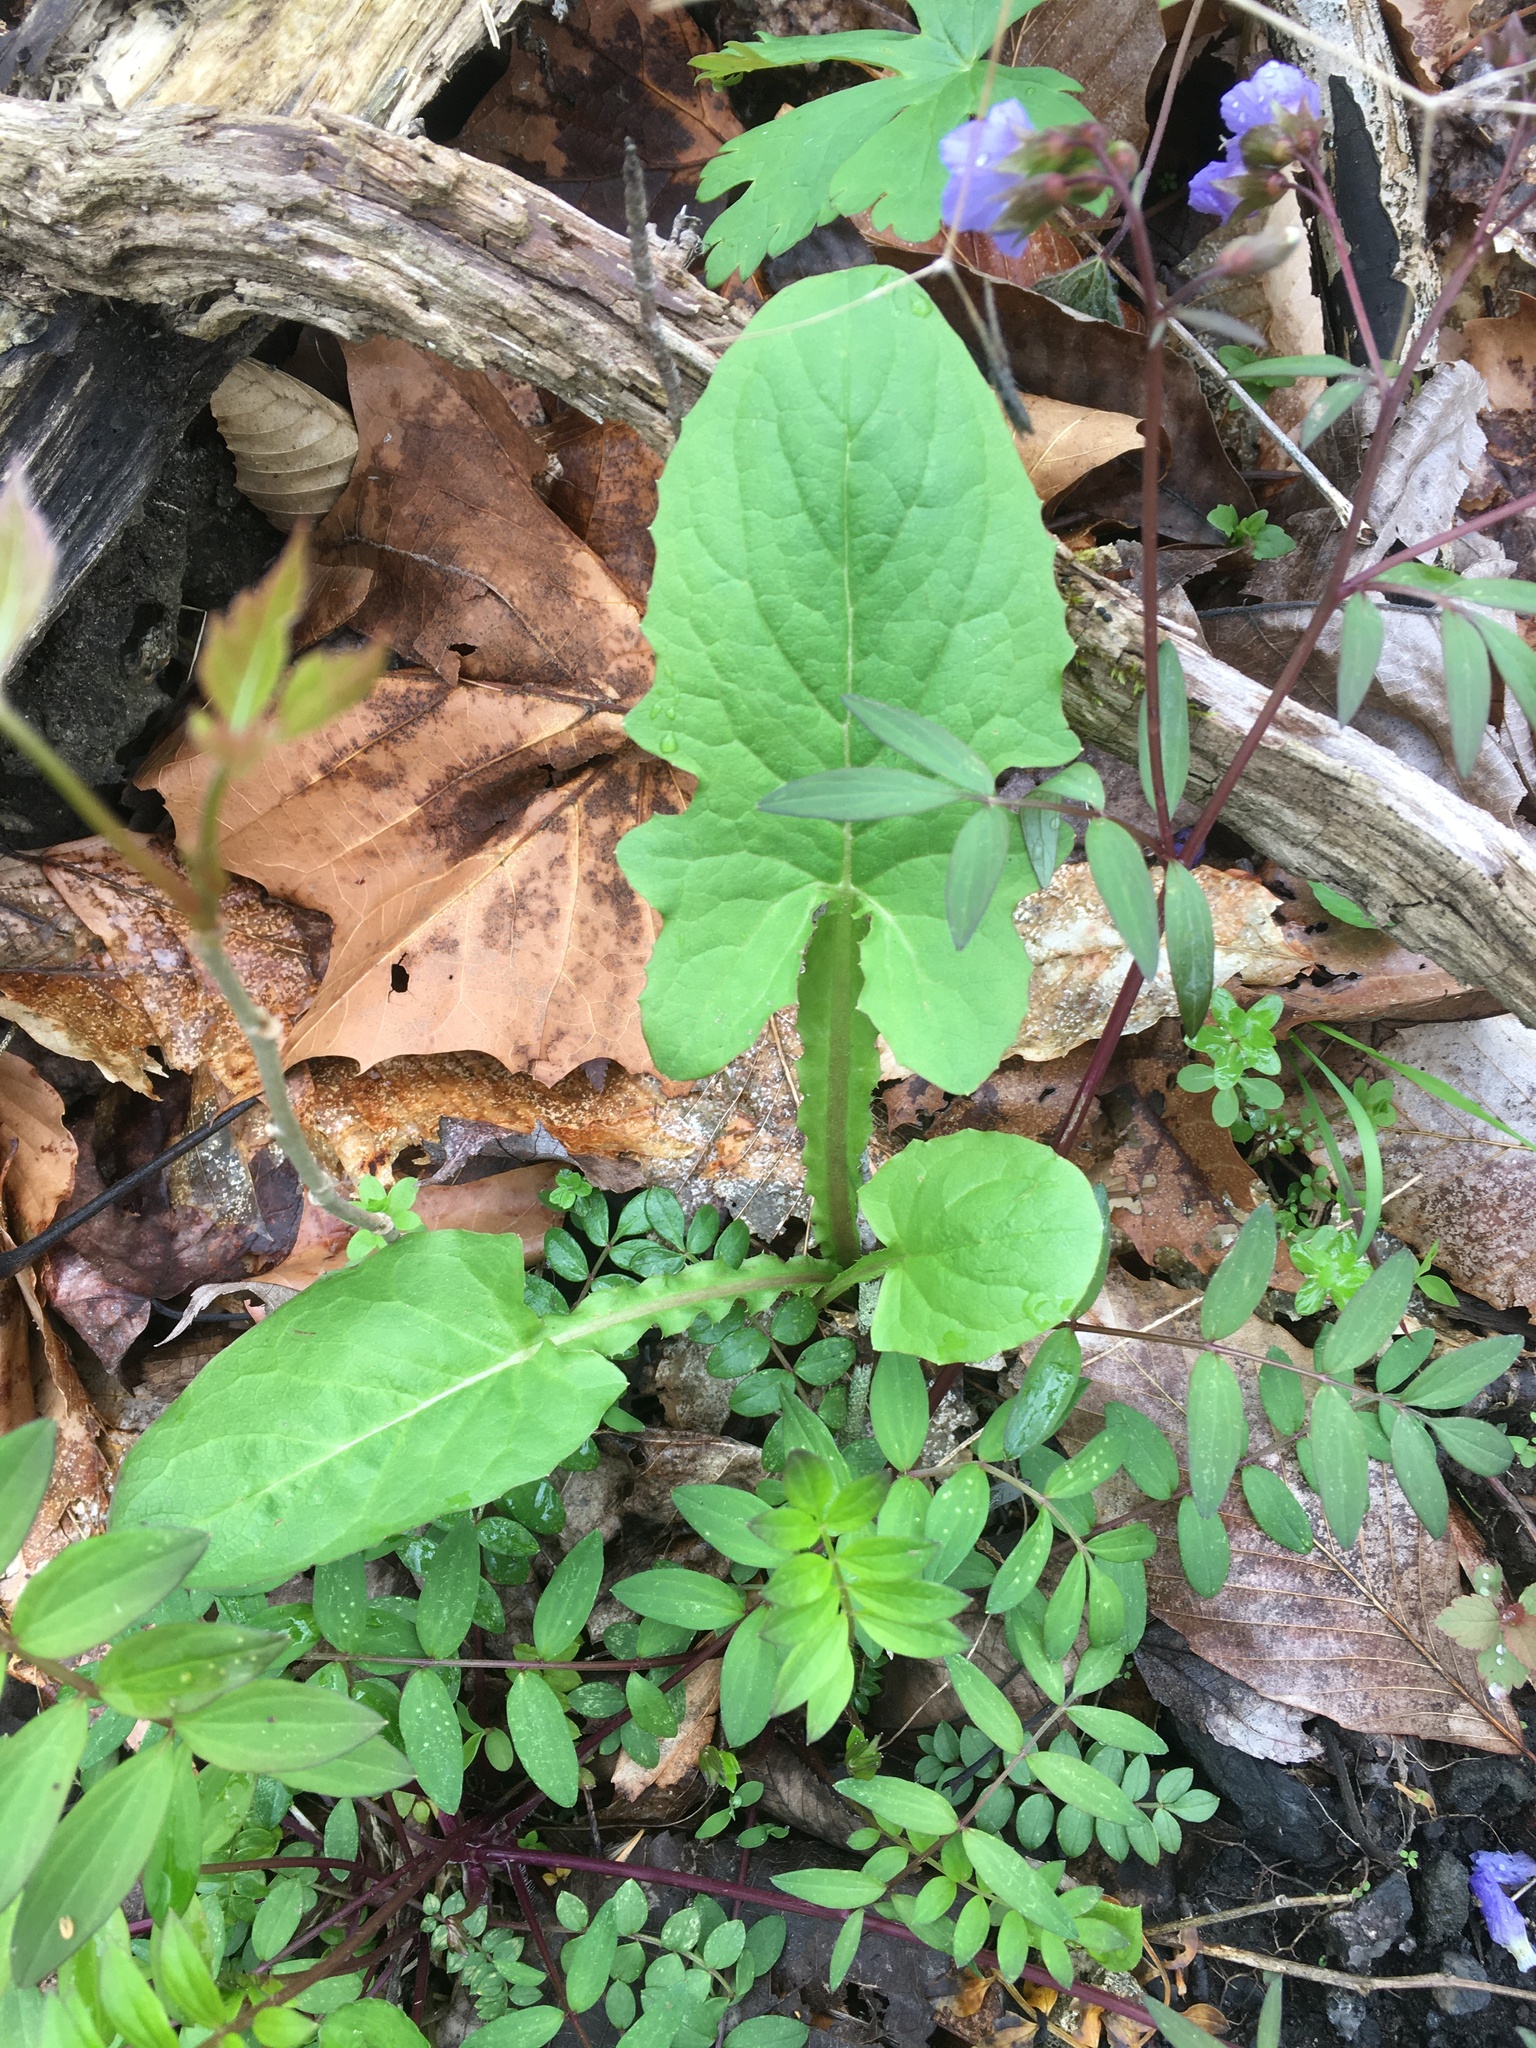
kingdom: Plantae
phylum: Tracheophyta
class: Magnoliopsida
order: Asterales
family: Asteraceae
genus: Nabalus
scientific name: Nabalus crepidineus
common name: Nodding rattlesnakeroot
